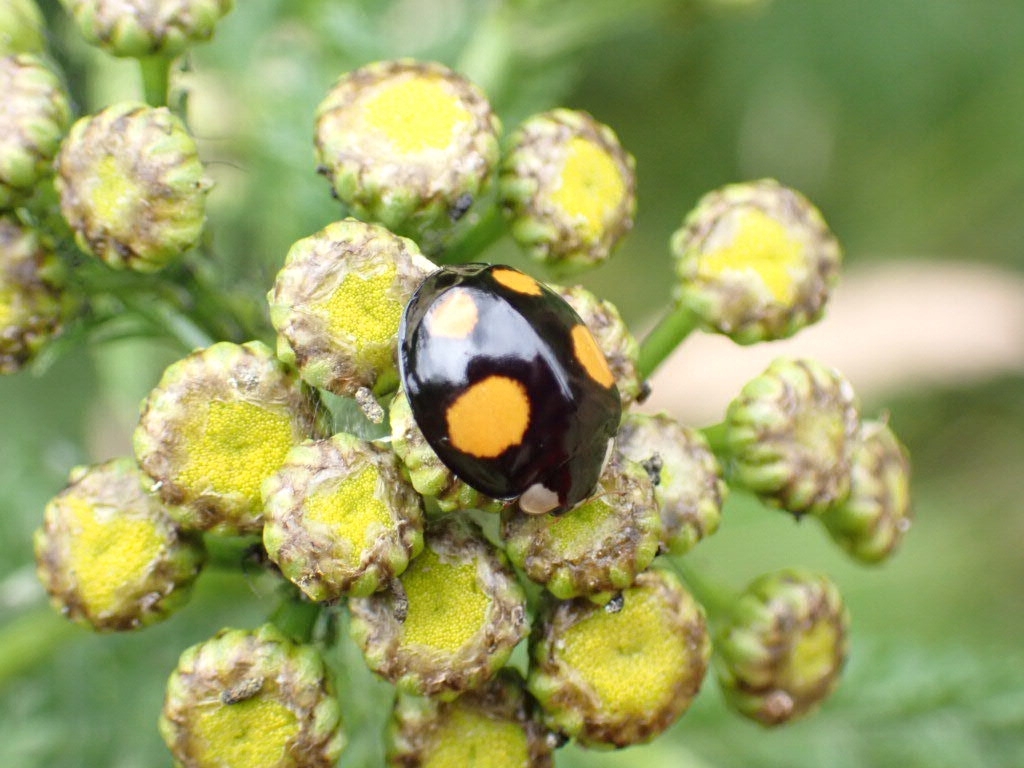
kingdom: Animalia
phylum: Arthropoda
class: Insecta
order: Coleoptera
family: Coccinellidae
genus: Harmonia
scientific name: Harmonia axyridis
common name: Harlequin ladybird
